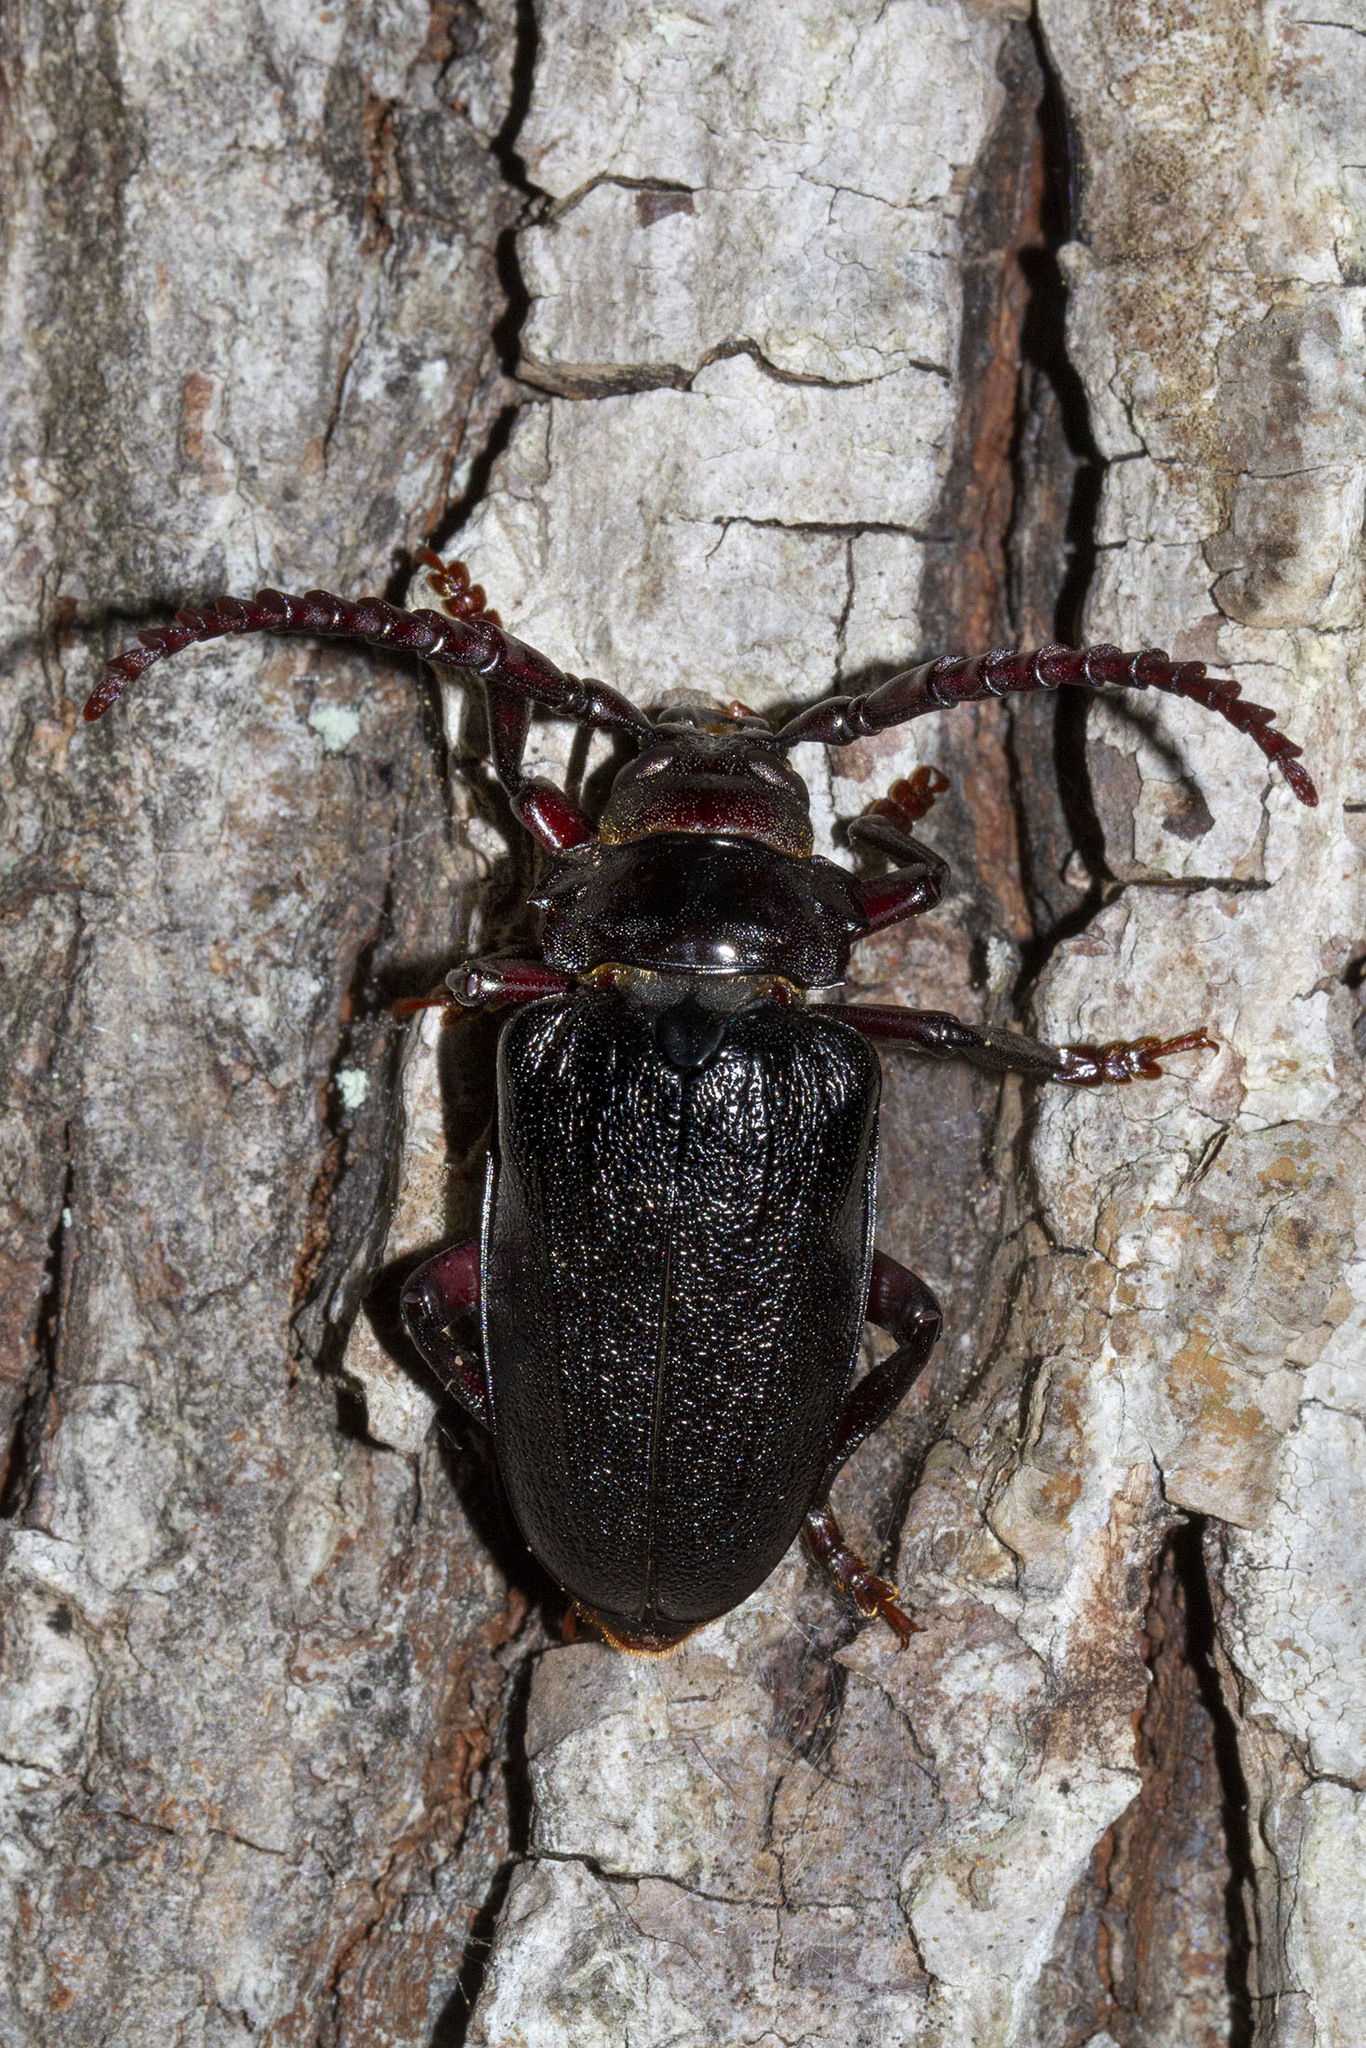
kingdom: Animalia
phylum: Arthropoda
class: Insecta
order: Coleoptera
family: Cerambycidae
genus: Prionus
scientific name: Prionus laticollis
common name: Broad necked prionus
